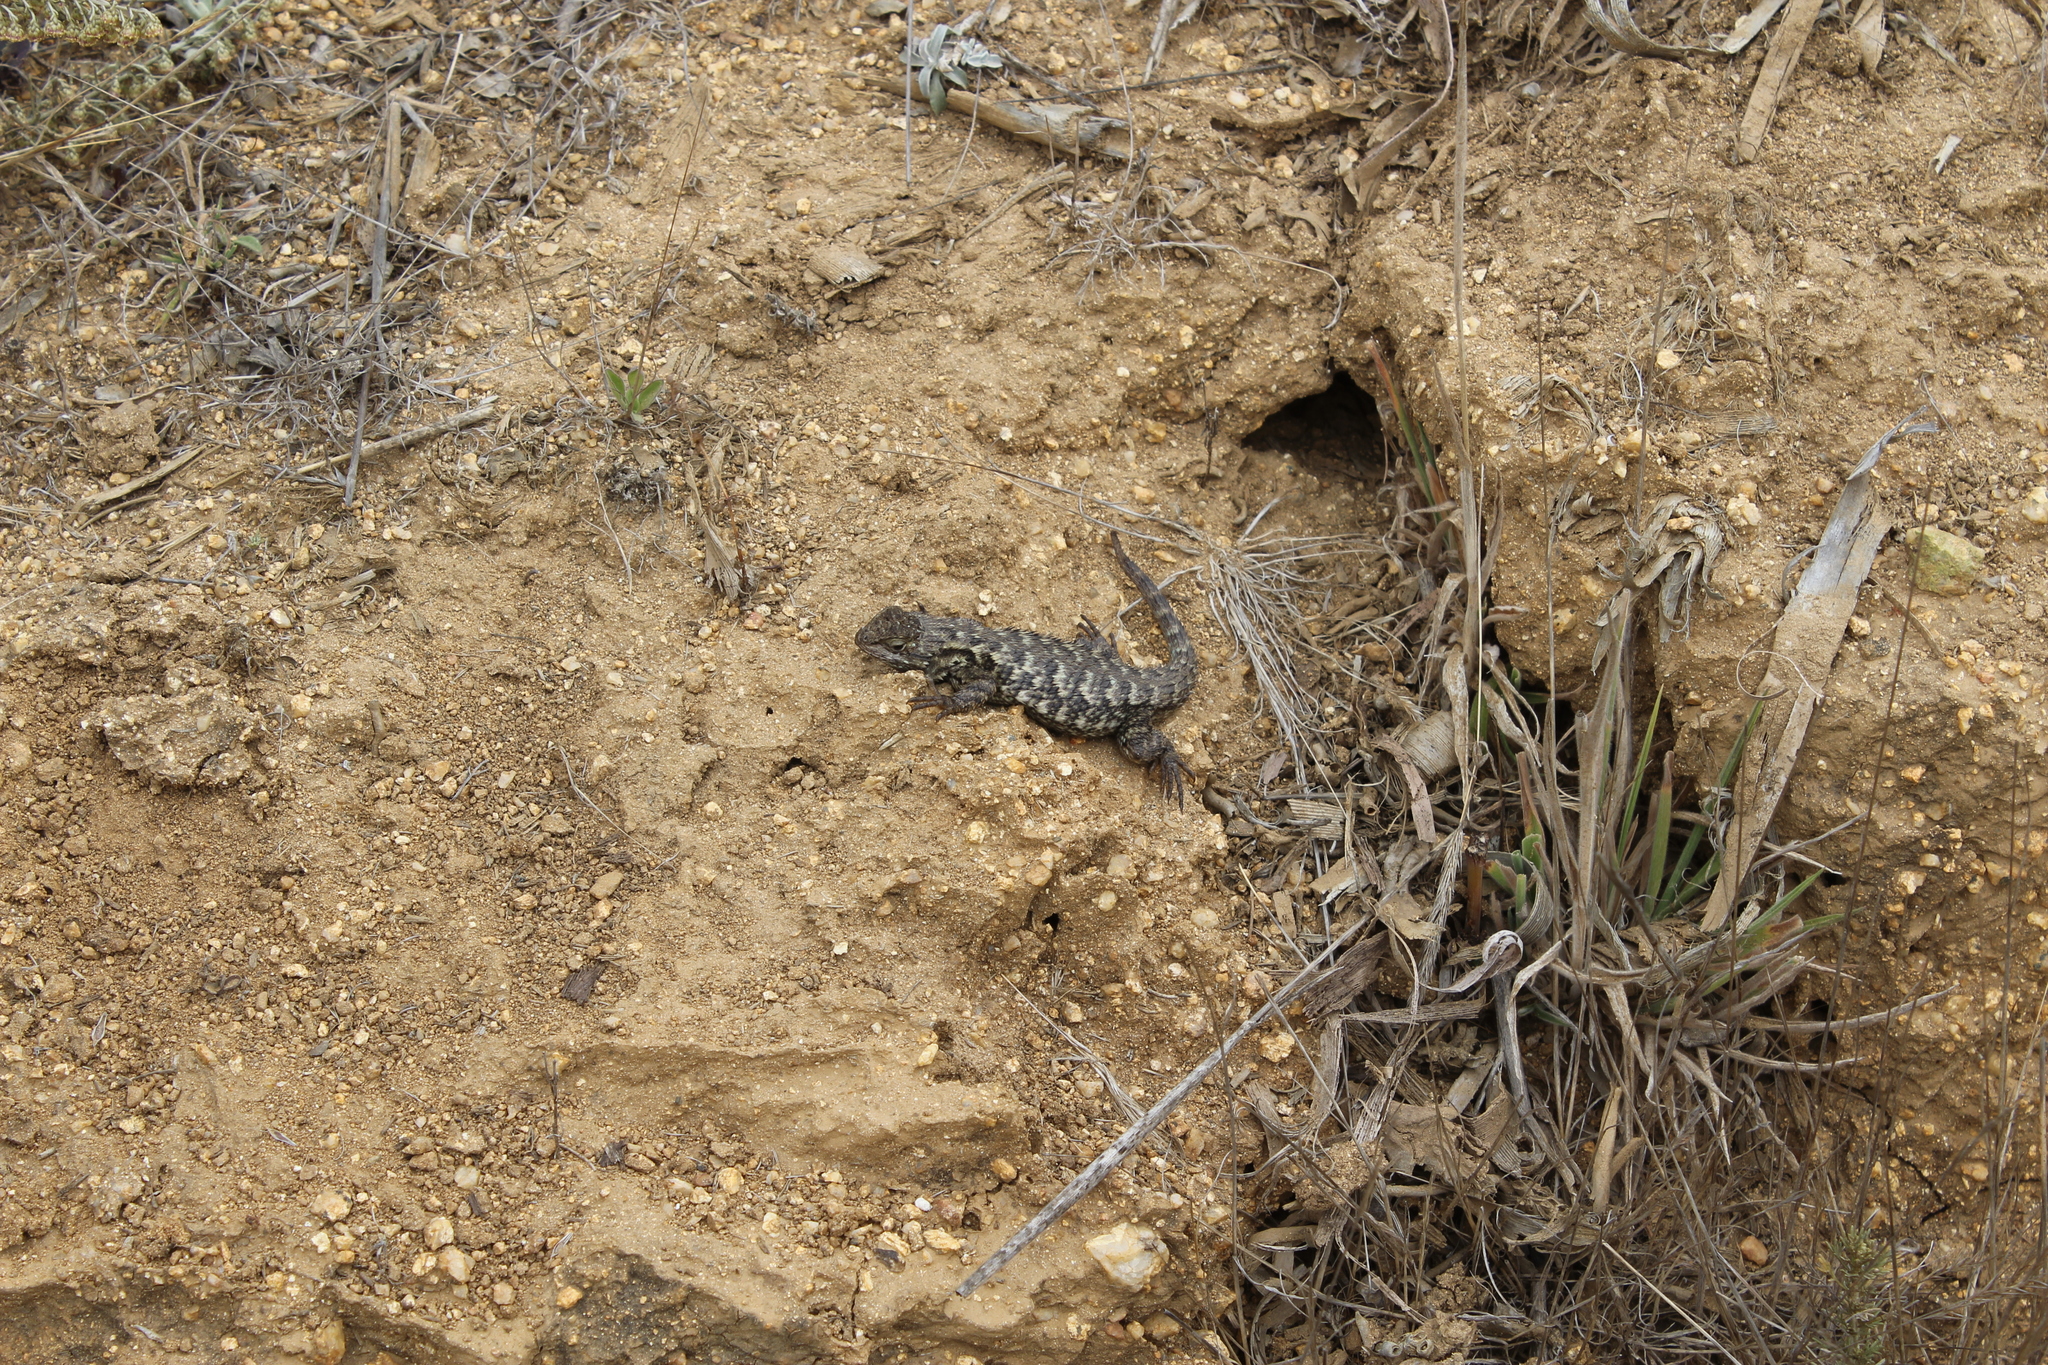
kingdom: Animalia
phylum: Chordata
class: Squamata
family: Phrynosomatidae
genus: Sceloporus
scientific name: Sceloporus occidentalis
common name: Western fence lizard
